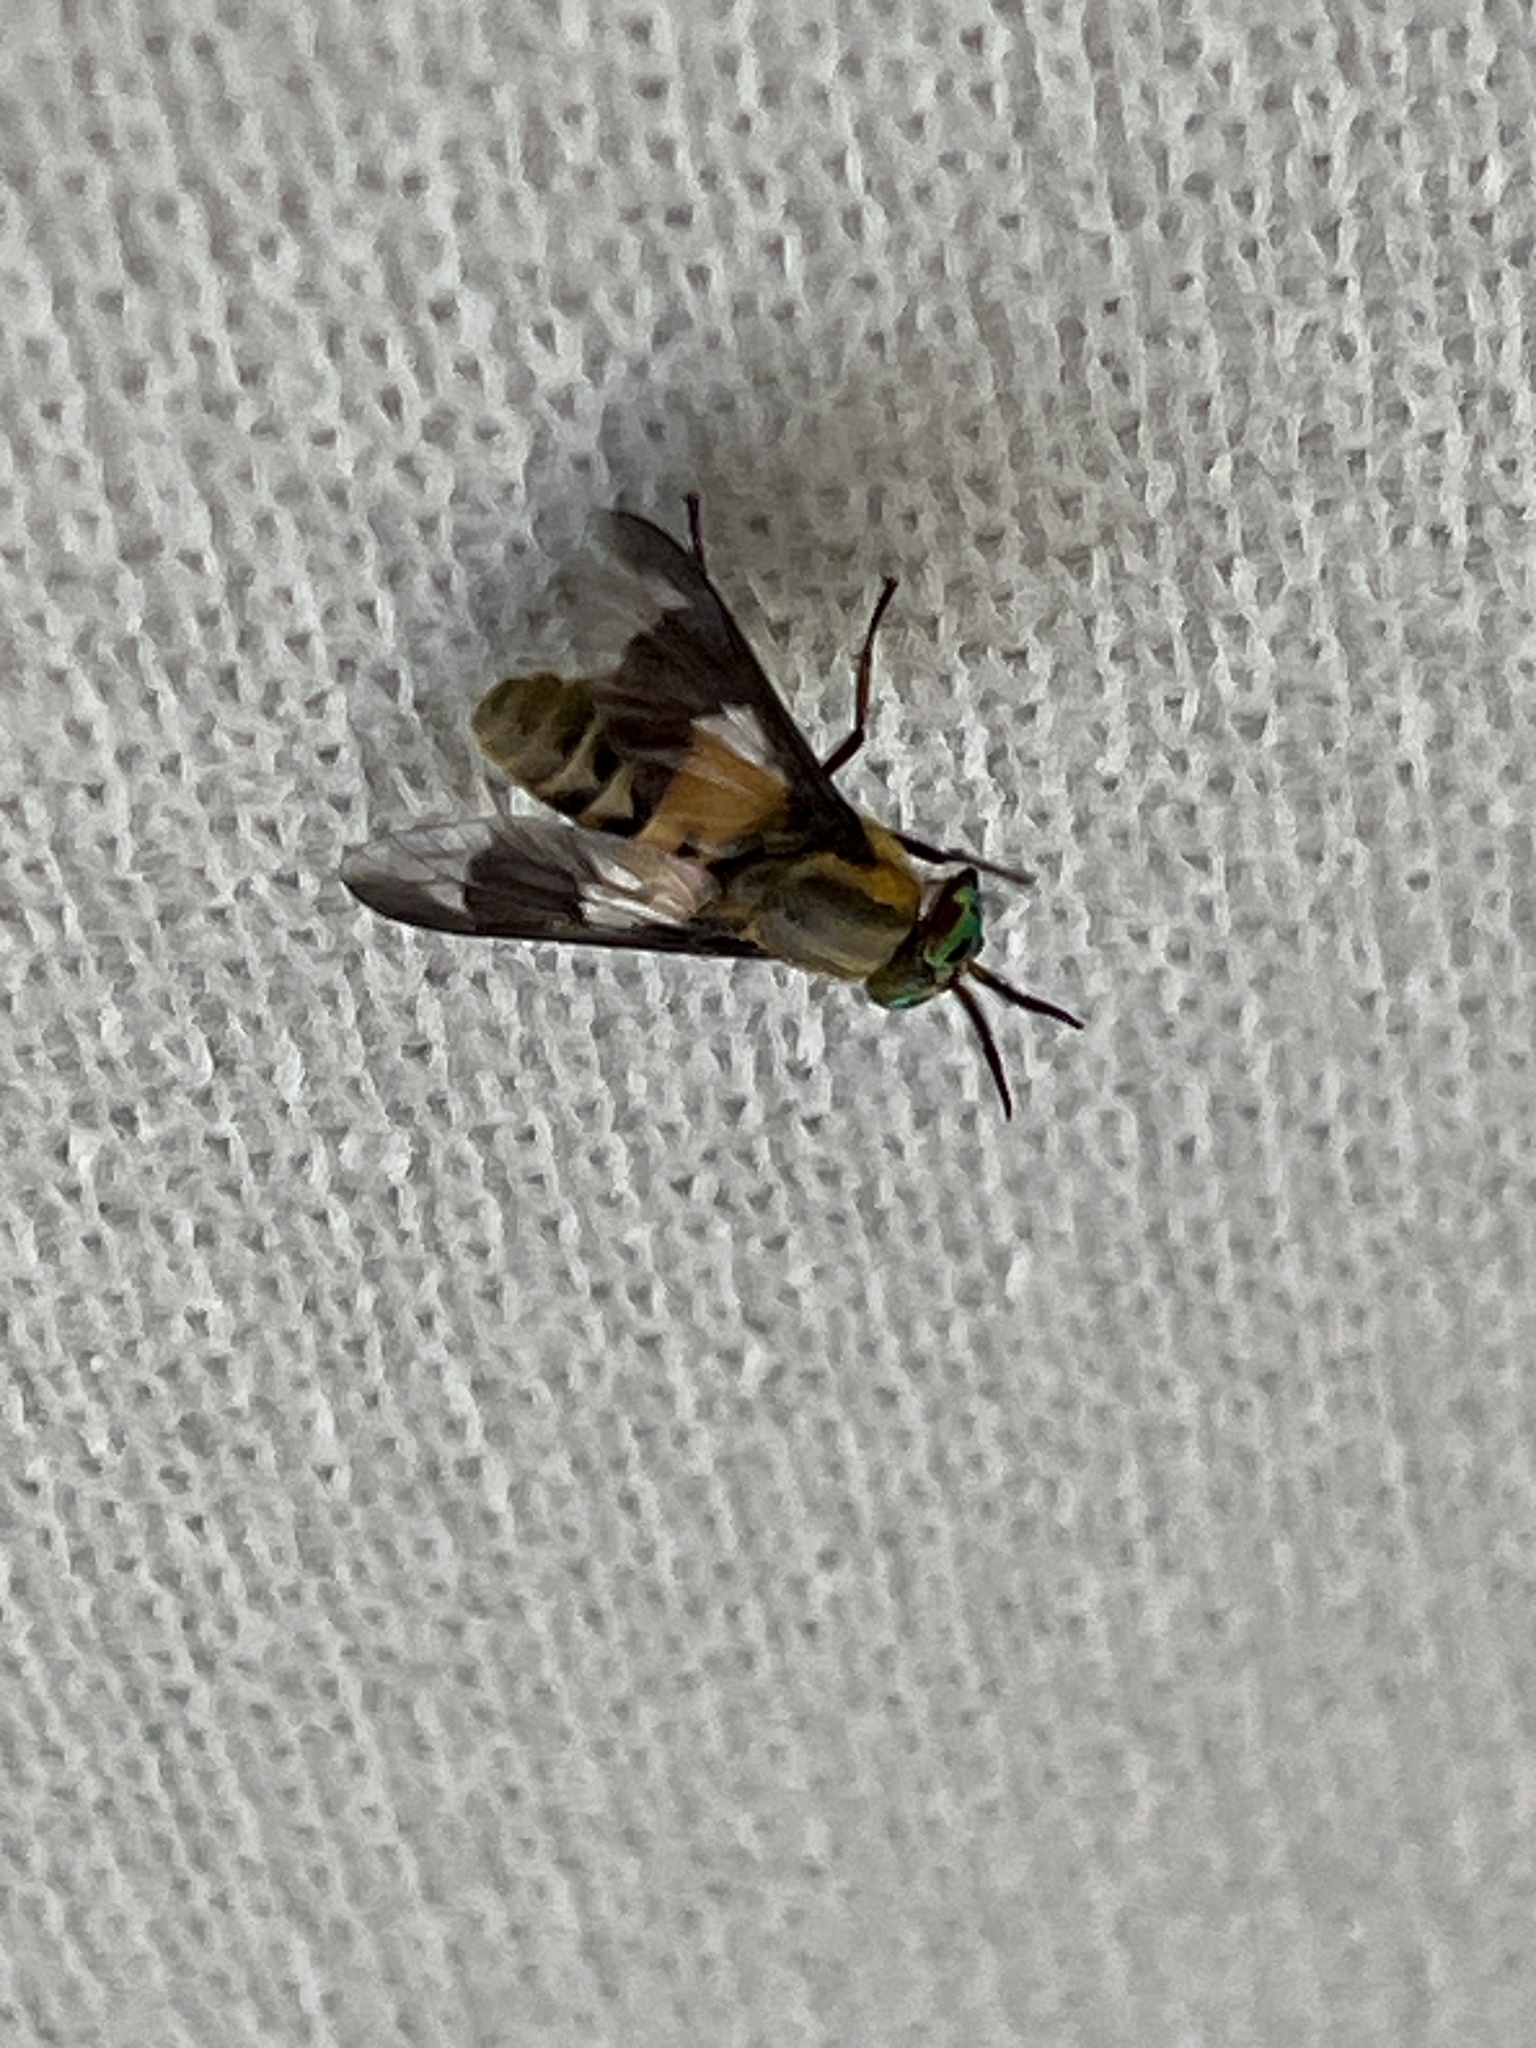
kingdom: Animalia
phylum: Arthropoda
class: Insecta
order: Diptera
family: Tabanidae
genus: Chrysops
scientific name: Chrysops viduatus
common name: Square-spot deerfly
